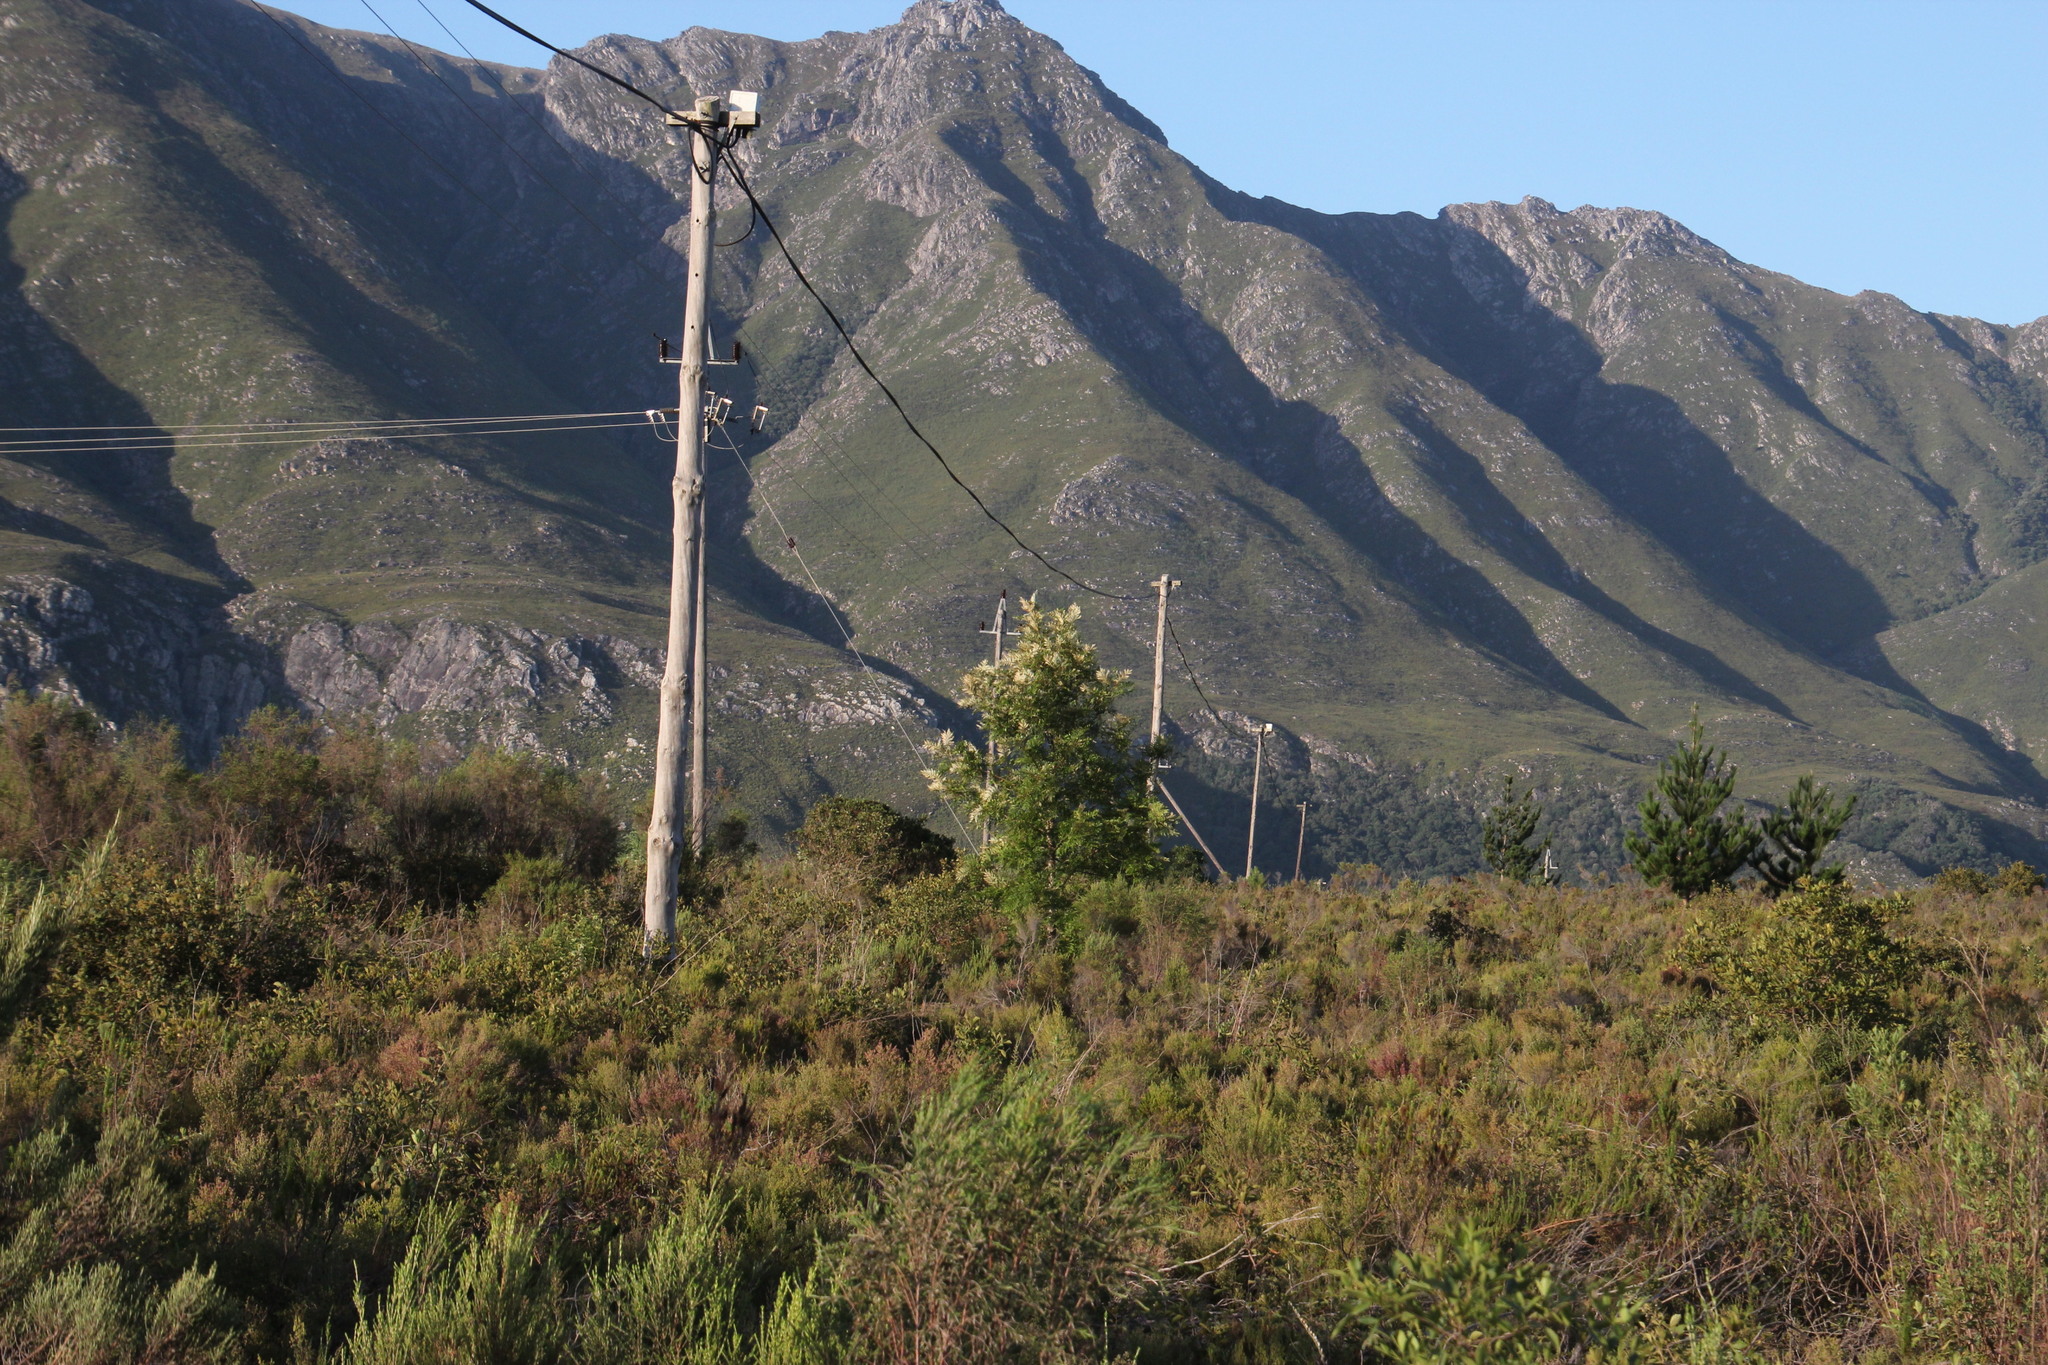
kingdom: Plantae
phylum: Tracheophyta
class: Magnoliopsida
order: Proteales
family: Proteaceae
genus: Grevillea
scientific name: Grevillea robusta
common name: Silkoak
